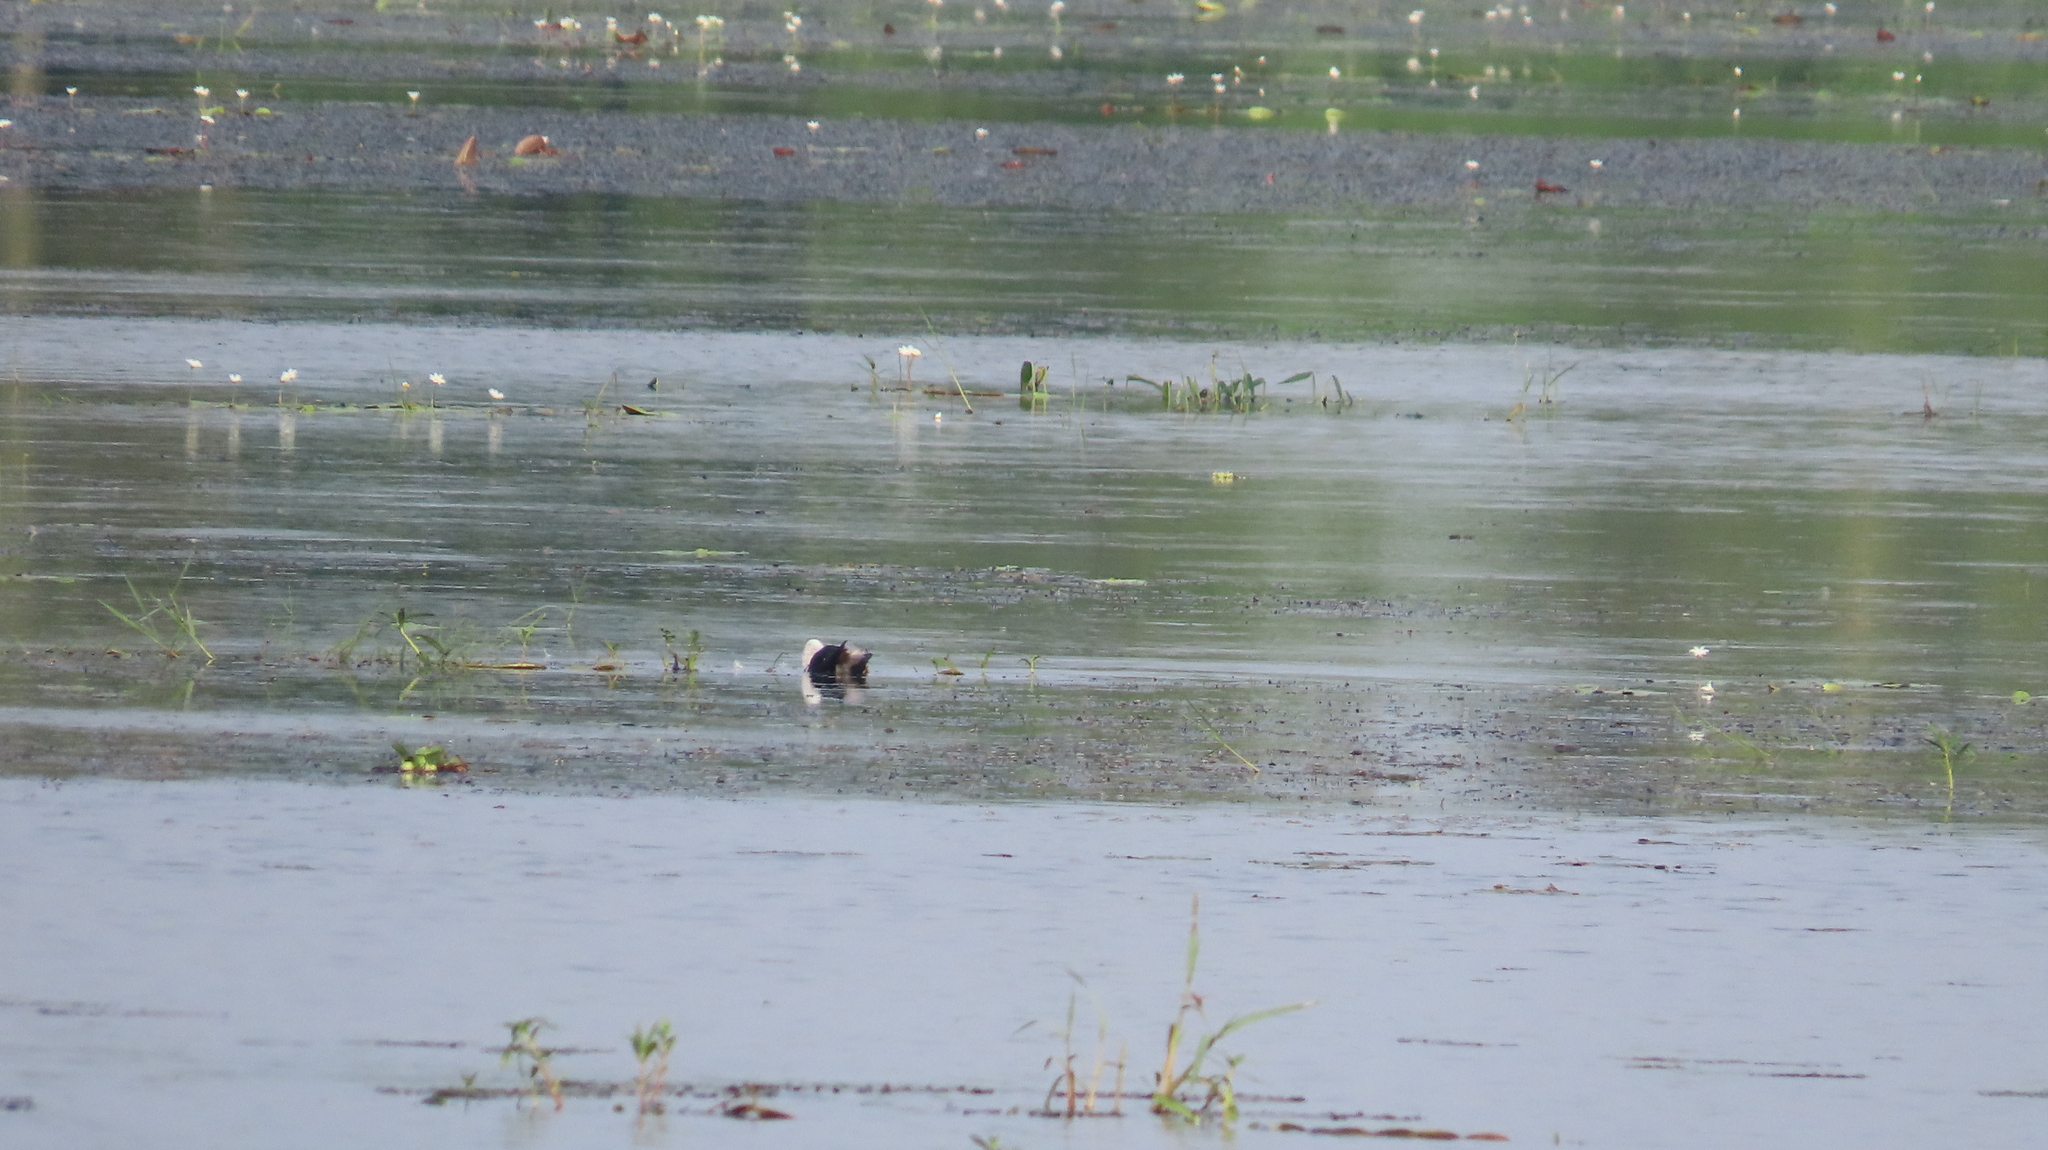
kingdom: Animalia
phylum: Chordata
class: Aves
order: Anseriformes
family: Anatidae
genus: Nettapus
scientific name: Nettapus coromandelianus
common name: Cotton pygmy-goose
